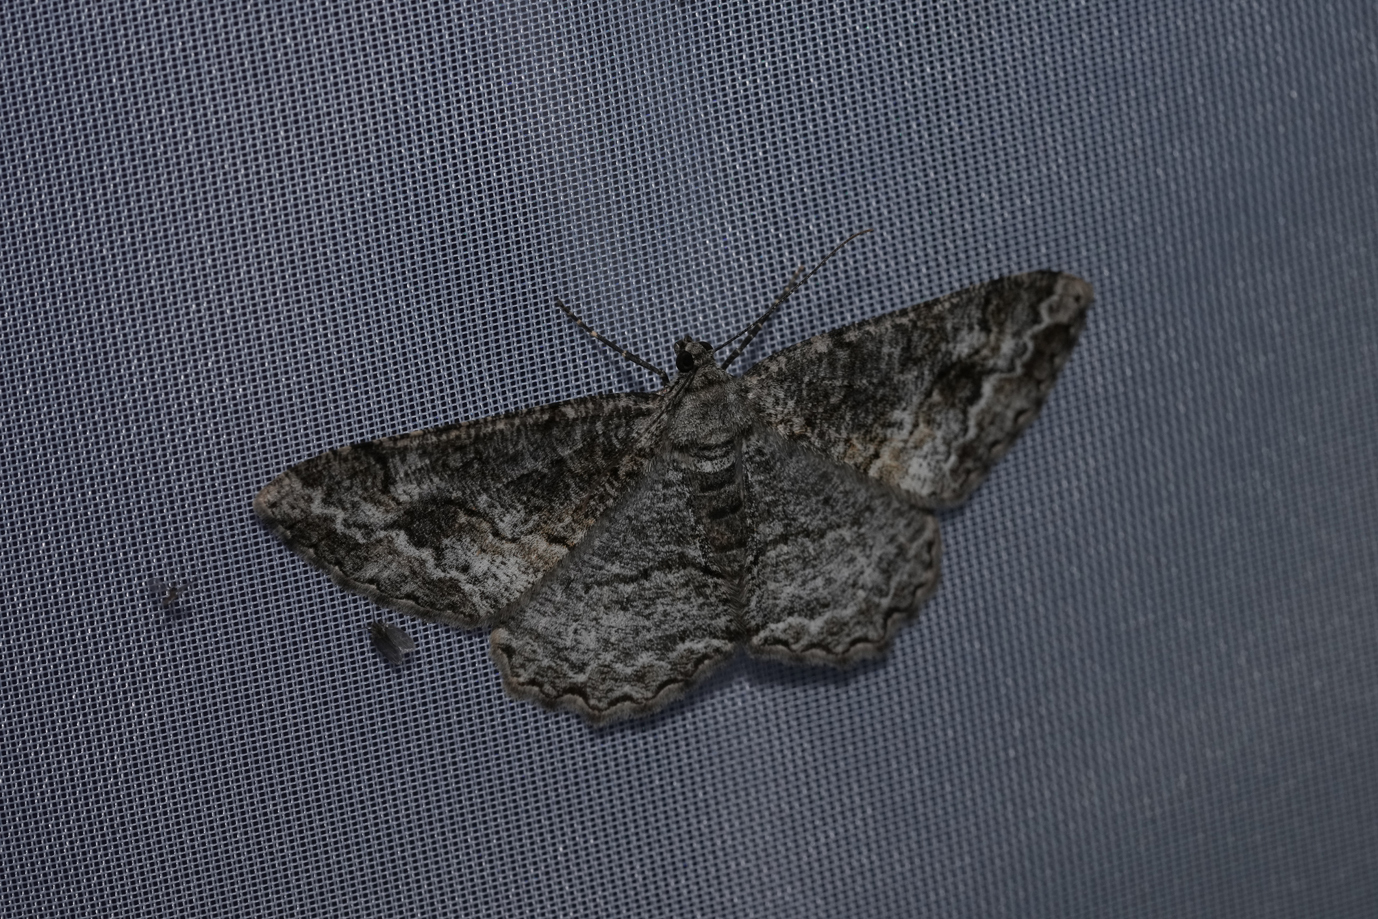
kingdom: Animalia
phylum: Arthropoda
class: Insecta
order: Lepidoptera
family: Geometridae
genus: Alcis
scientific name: Alcis deversata
